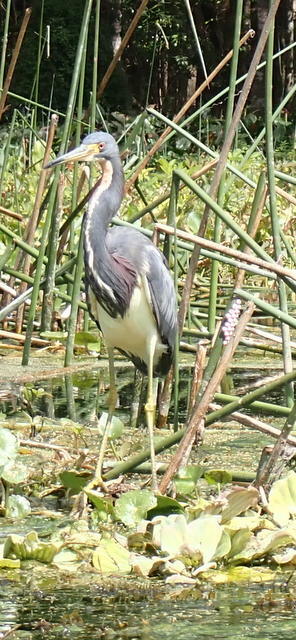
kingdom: Animalia
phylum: Chordata
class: Aves
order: Pelecaniformes
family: Ardeidae
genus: Egretta
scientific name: Egretta tricolor
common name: Tricolored heron
